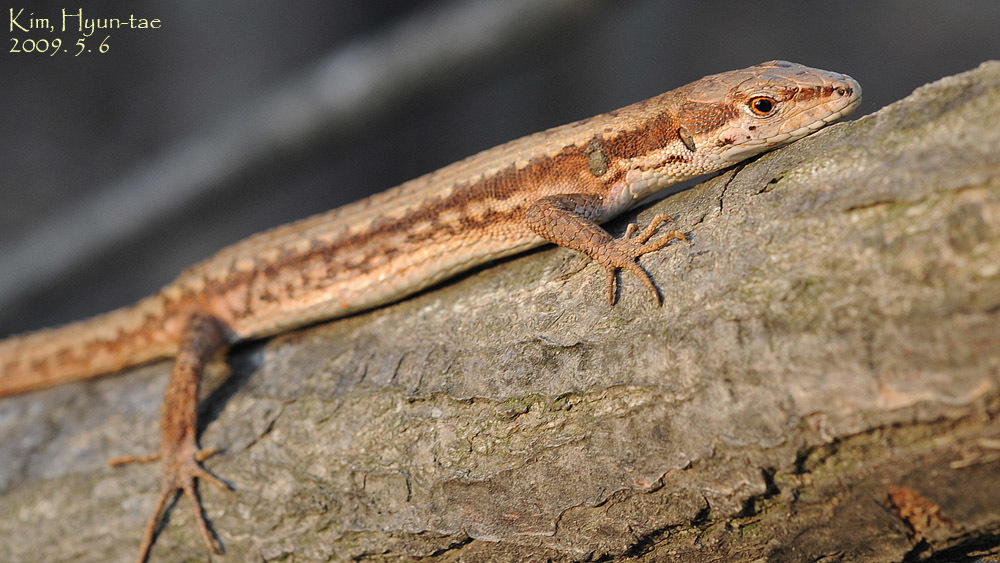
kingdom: Animalia
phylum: Chordata
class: Squamata
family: Lacertidae
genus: Takydromus
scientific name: Takydromus amurensis
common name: Amur grass lizard
